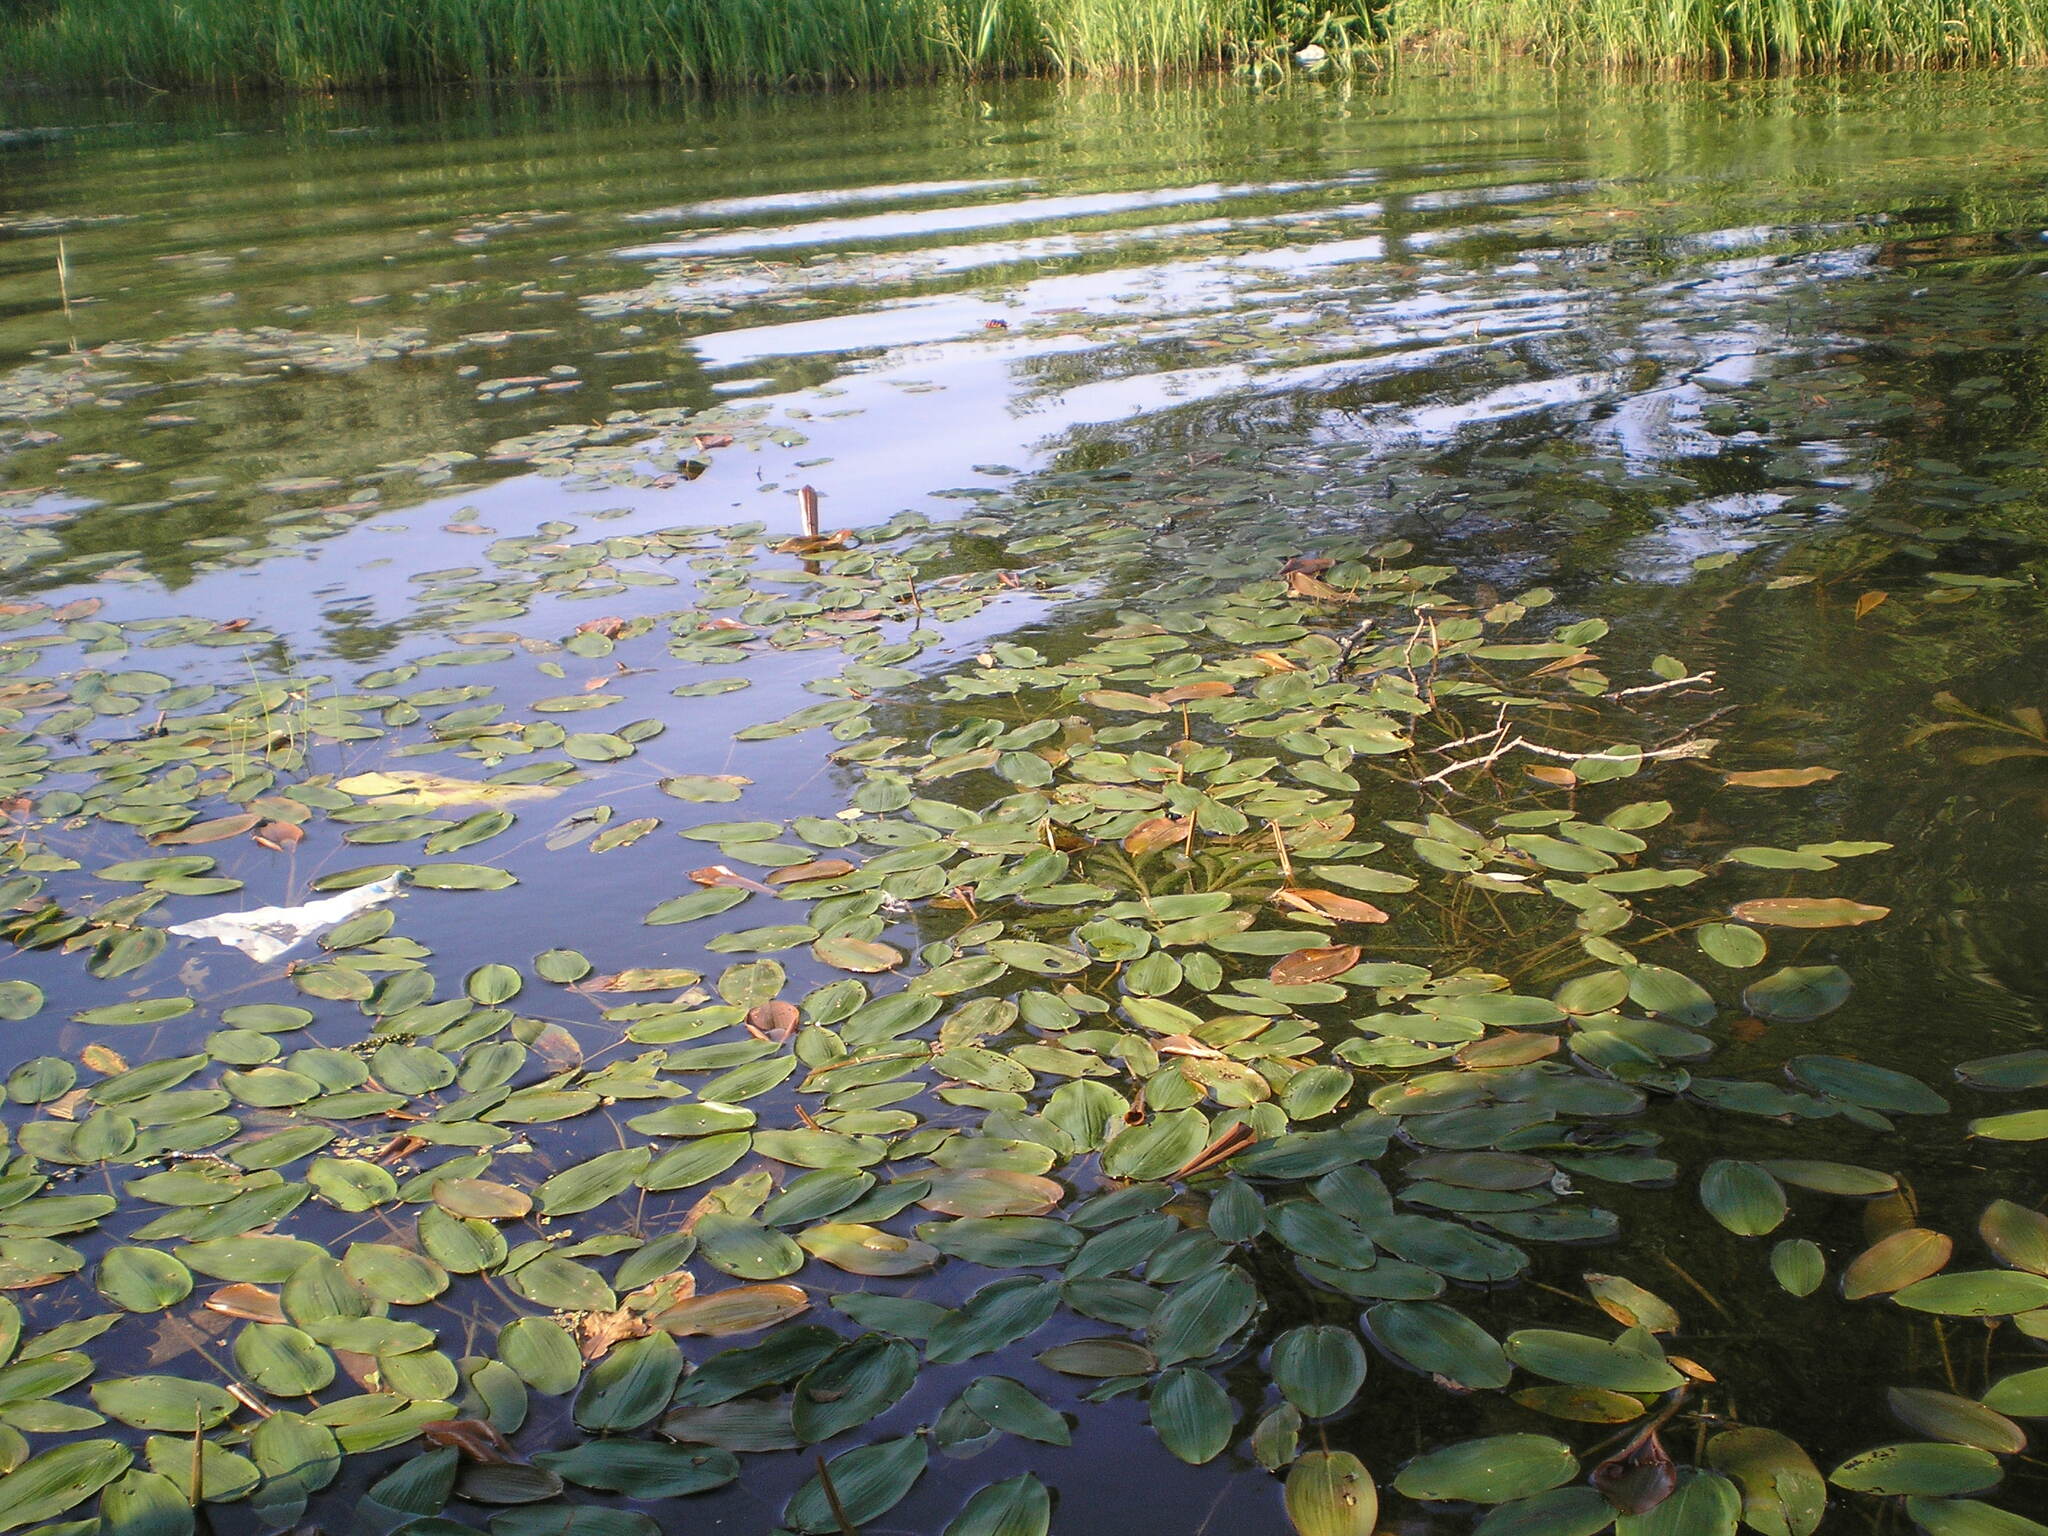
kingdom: Plantae
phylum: Tracheophyta
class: Liliopsida
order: Alismatales
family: Potamogetonaceae
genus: Potamogeton
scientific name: Potamogeton natans
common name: Broad-leaved pondweed
